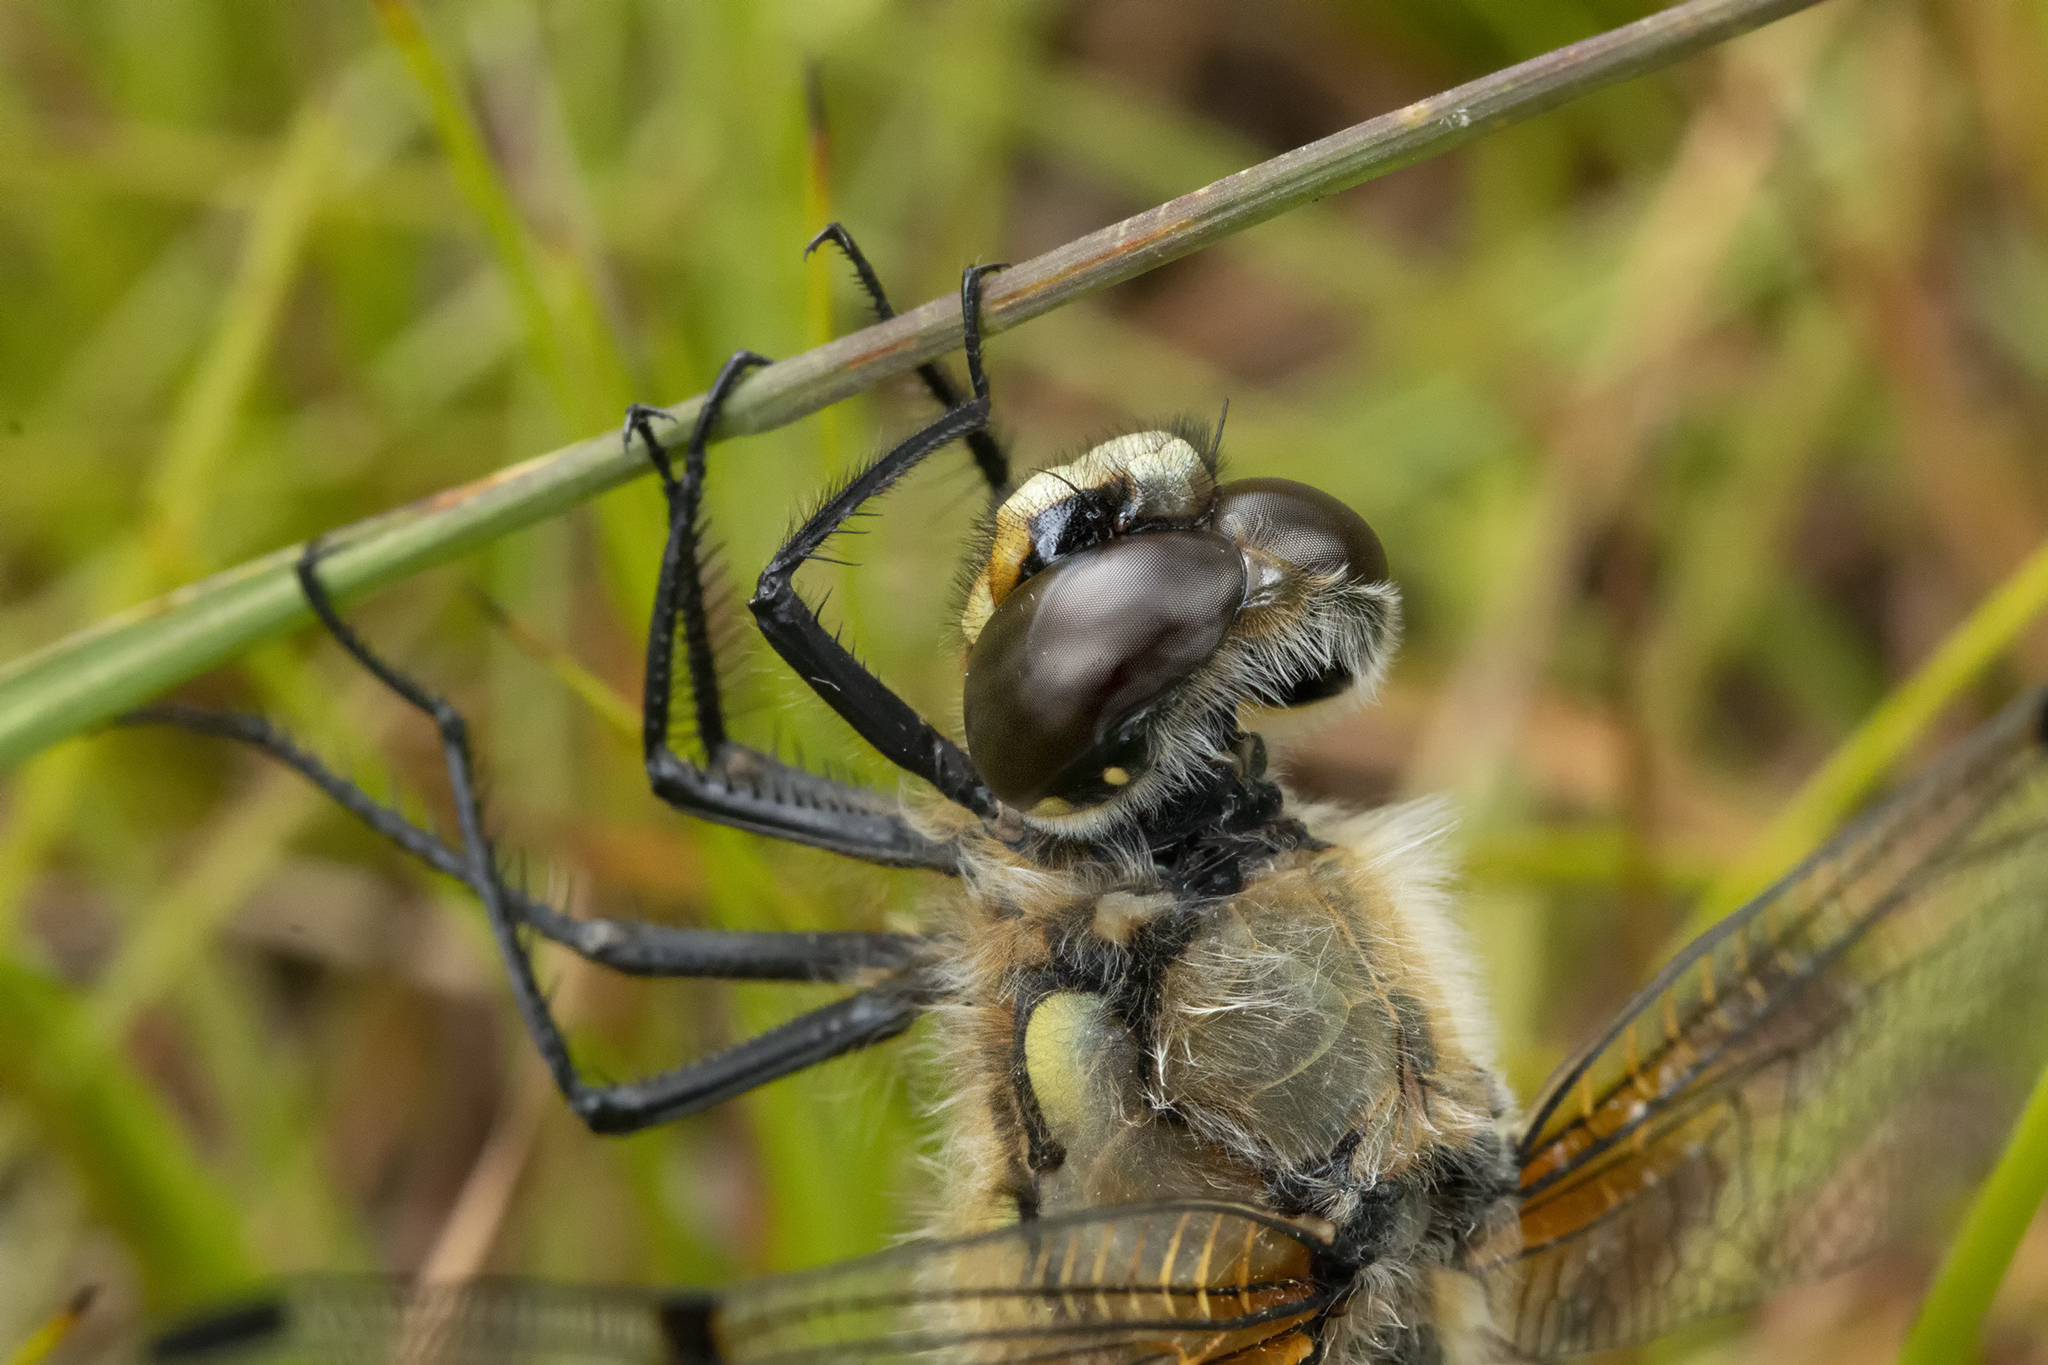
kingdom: Animalia
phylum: Arthropoda
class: Insecta
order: Odonata
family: Libellulidae
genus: Libellula
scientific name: Libellula quadrimaculata
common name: Four-spotted chaser
